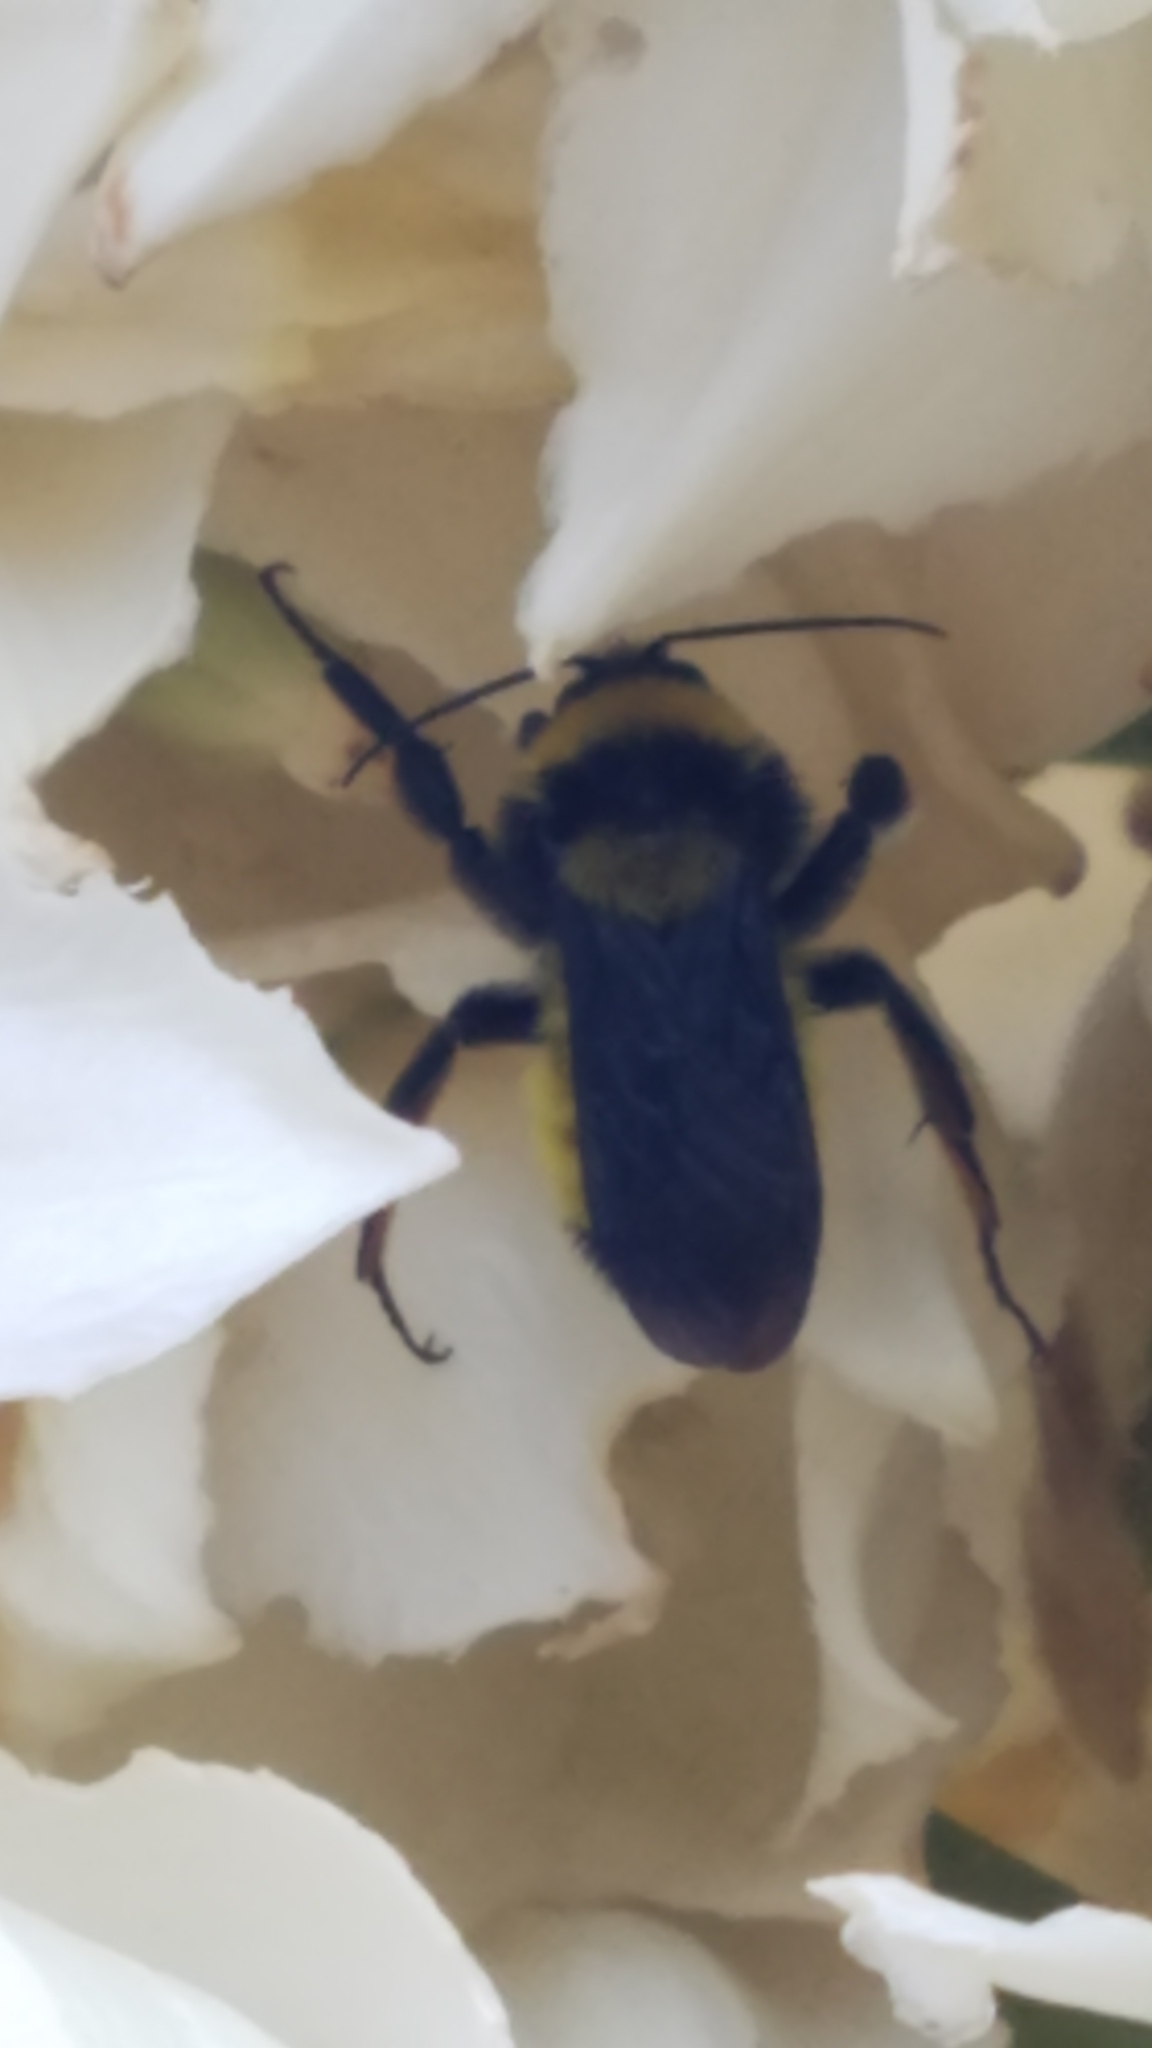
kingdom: Animalia
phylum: Arthropoda
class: Insecta
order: Hymenoptera
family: Apidae
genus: Bombus
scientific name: Bombus sonorus
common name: Sonoran bumble bee
